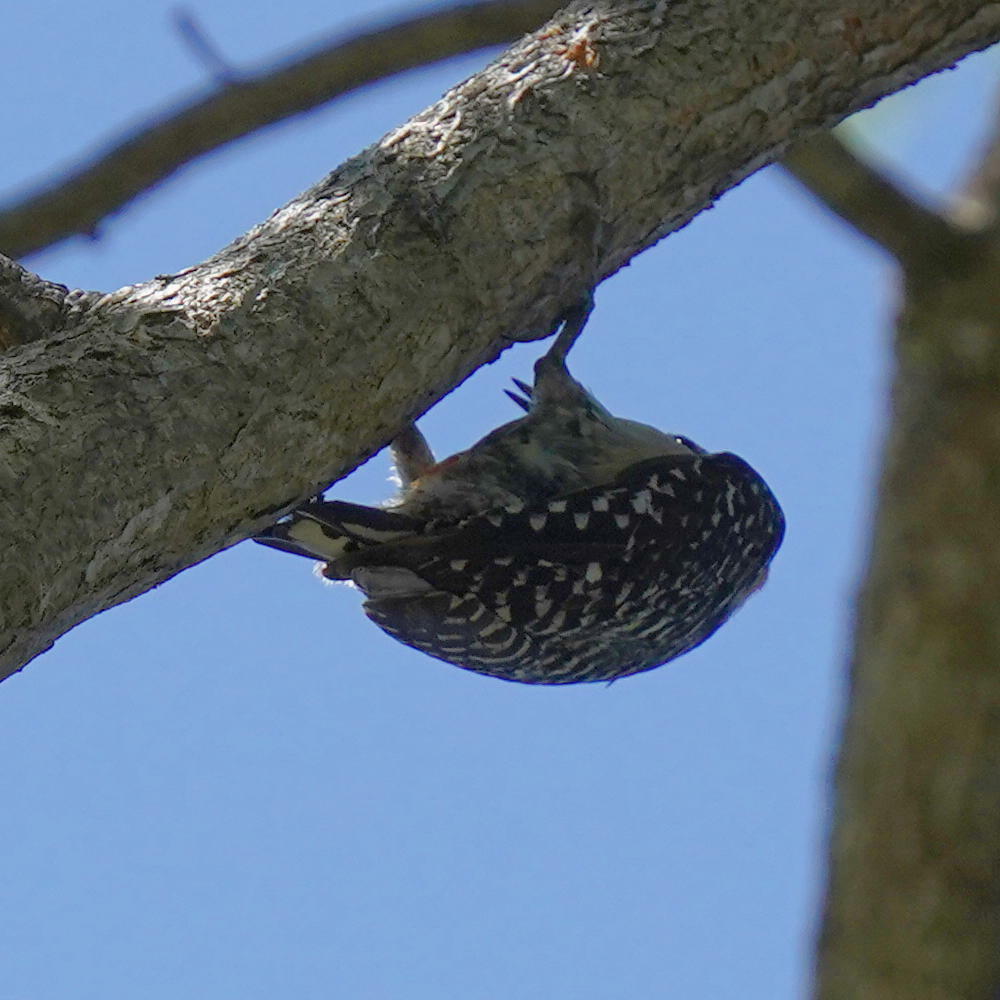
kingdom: Animalia
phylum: Chordata
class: Aves
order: Piciformes
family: Picidae
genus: Melanerpes
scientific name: Melanerpes rubricapillus
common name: Red-crowned woodpecker
